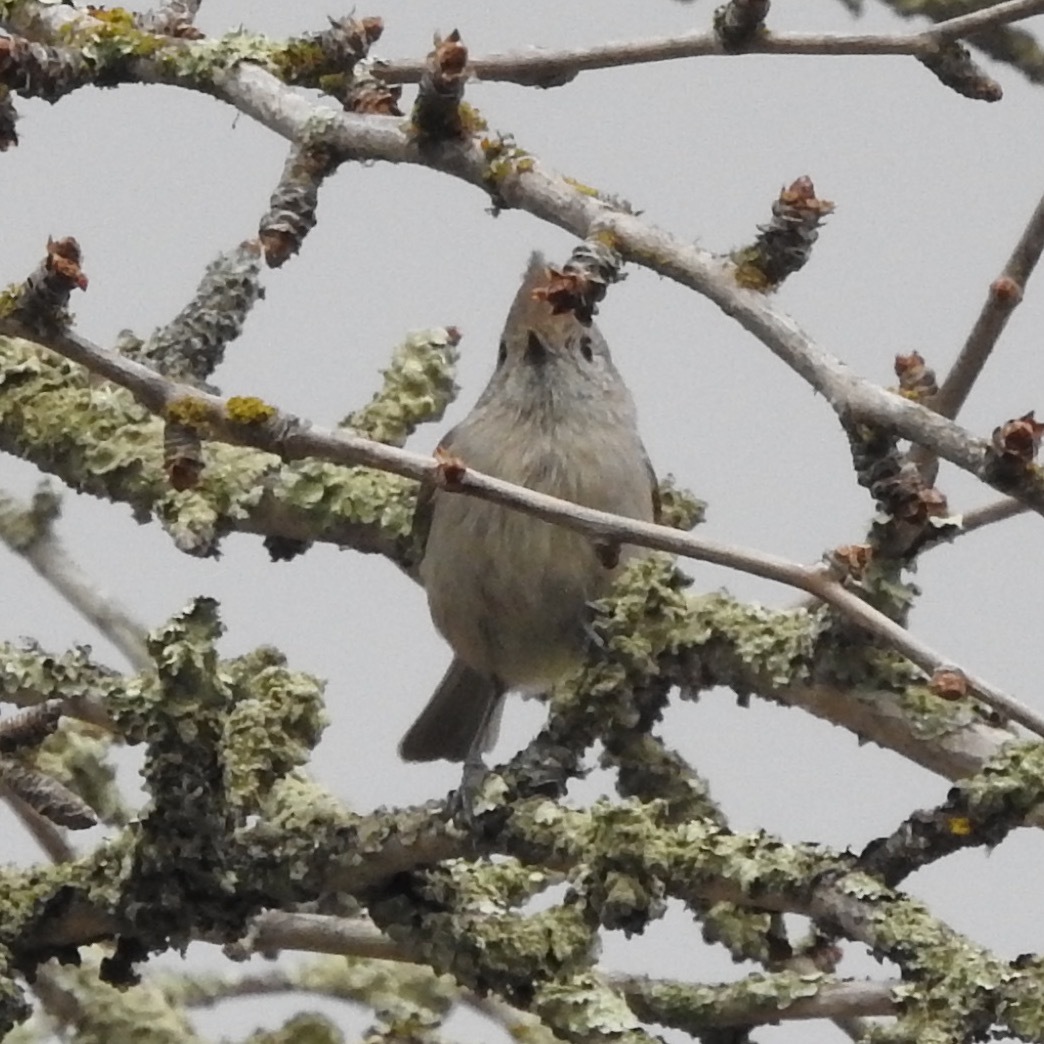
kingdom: Animalia
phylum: Chordata
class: Aves
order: Passeriformes
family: Paridae
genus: Baeolophus
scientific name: Baeolophus inornatus
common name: Oak titmouse
